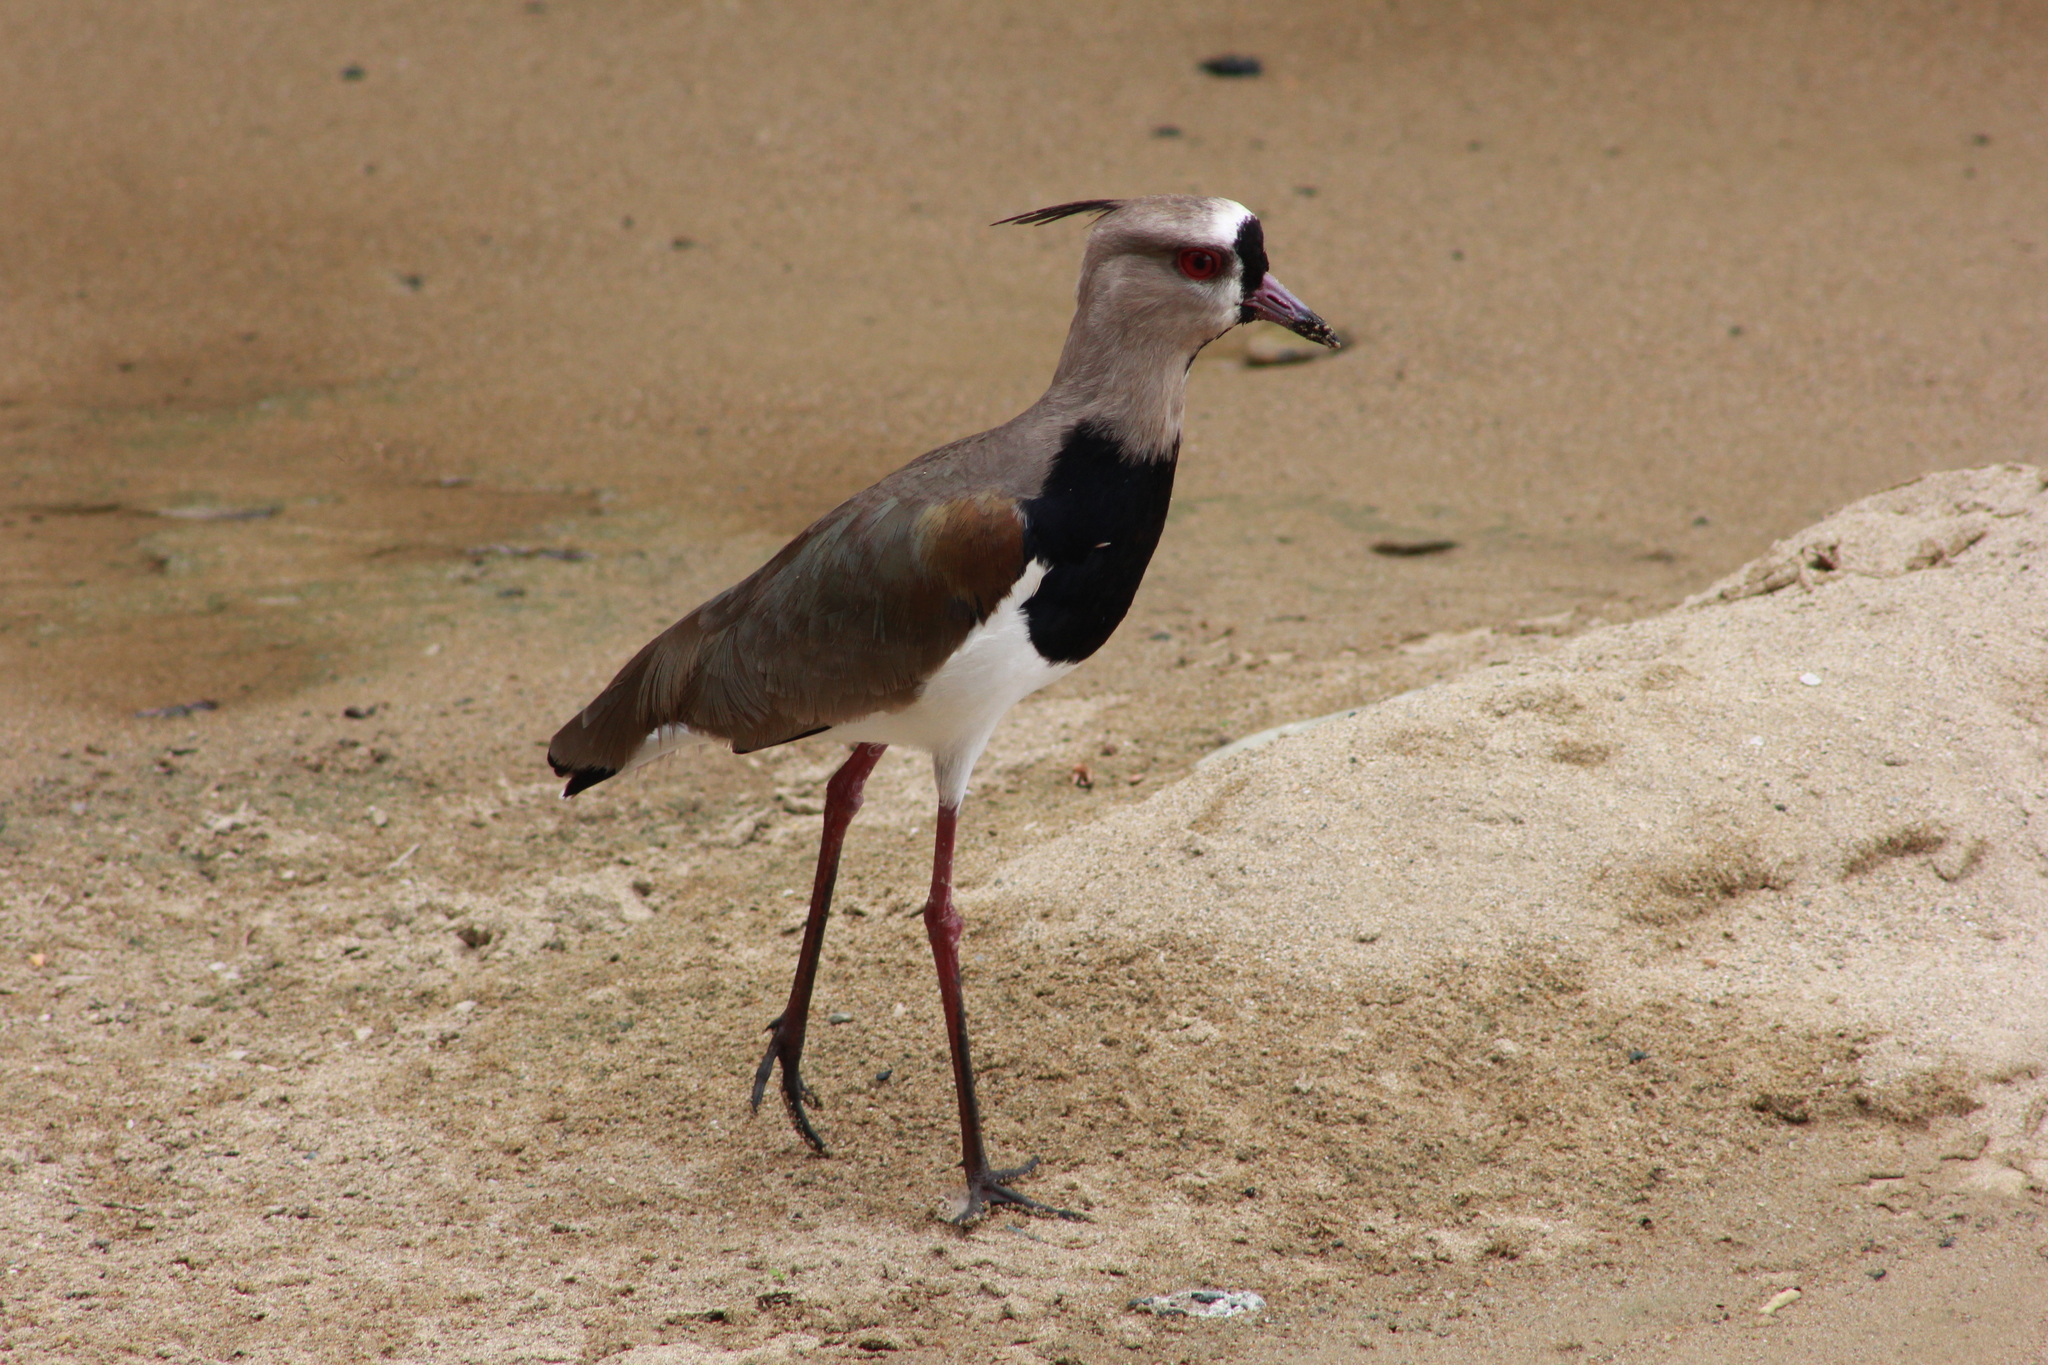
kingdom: Animalia
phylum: Chordata
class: Aves
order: Charadriiformes
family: Charadriidae
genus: Vanellus
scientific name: Vanellus chilensis
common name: Southern lapwing
